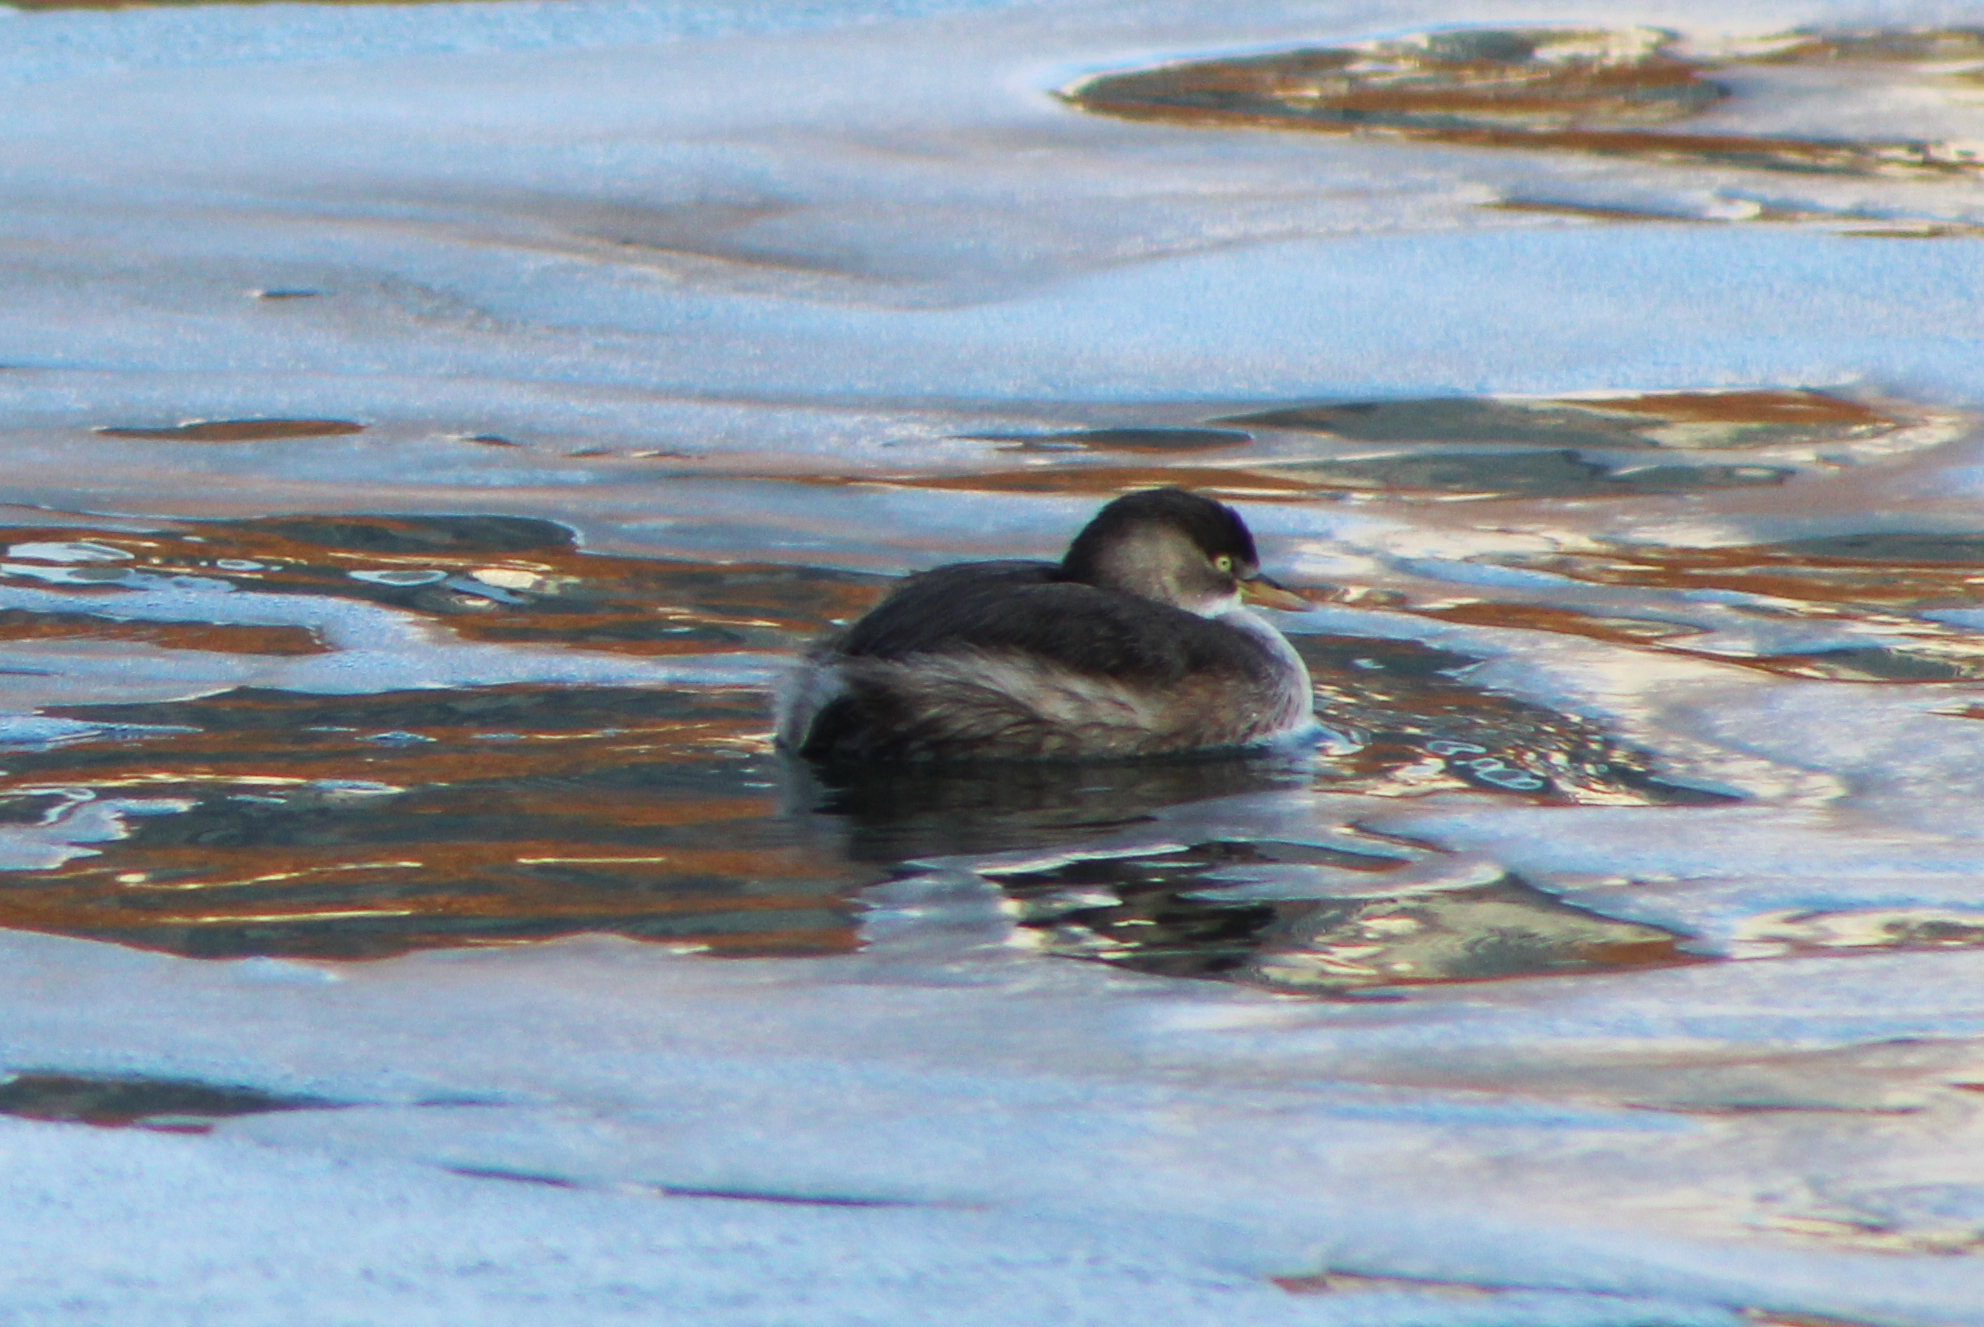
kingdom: Animalia
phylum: Chordata
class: Aves
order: Podicipediformes
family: Podicipedidae
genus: Tachybaptus
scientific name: Tachybaptus ruficollis
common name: Little grebe
